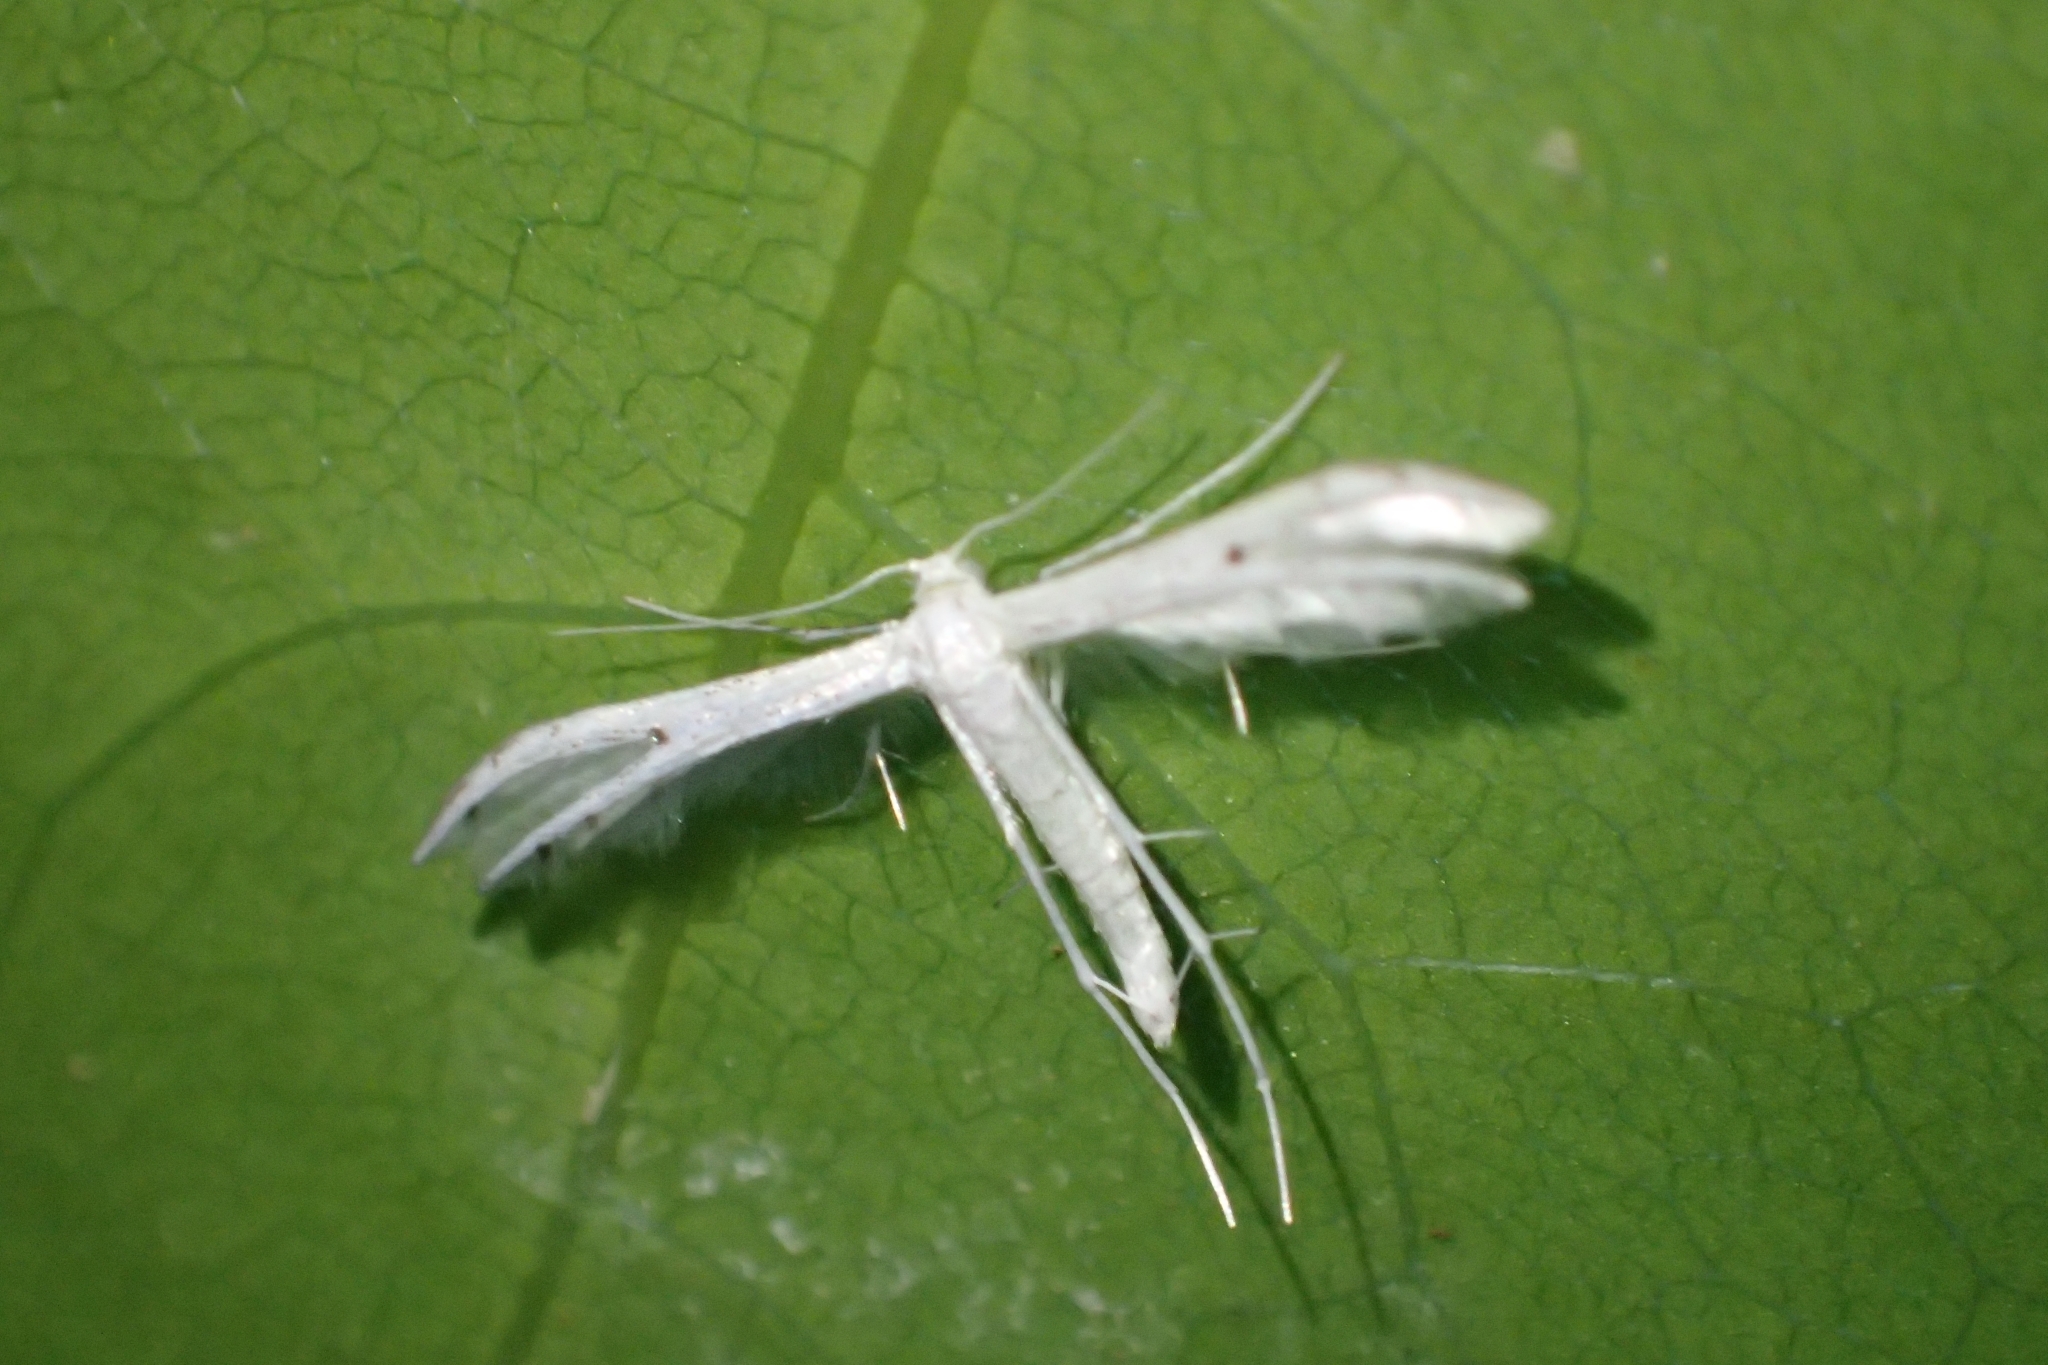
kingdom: Animalia
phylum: Arthropoda
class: Insecta
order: Lepidoptera
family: Pterophoridae
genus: Pterophorus
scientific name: Pterophorus monospilalis
